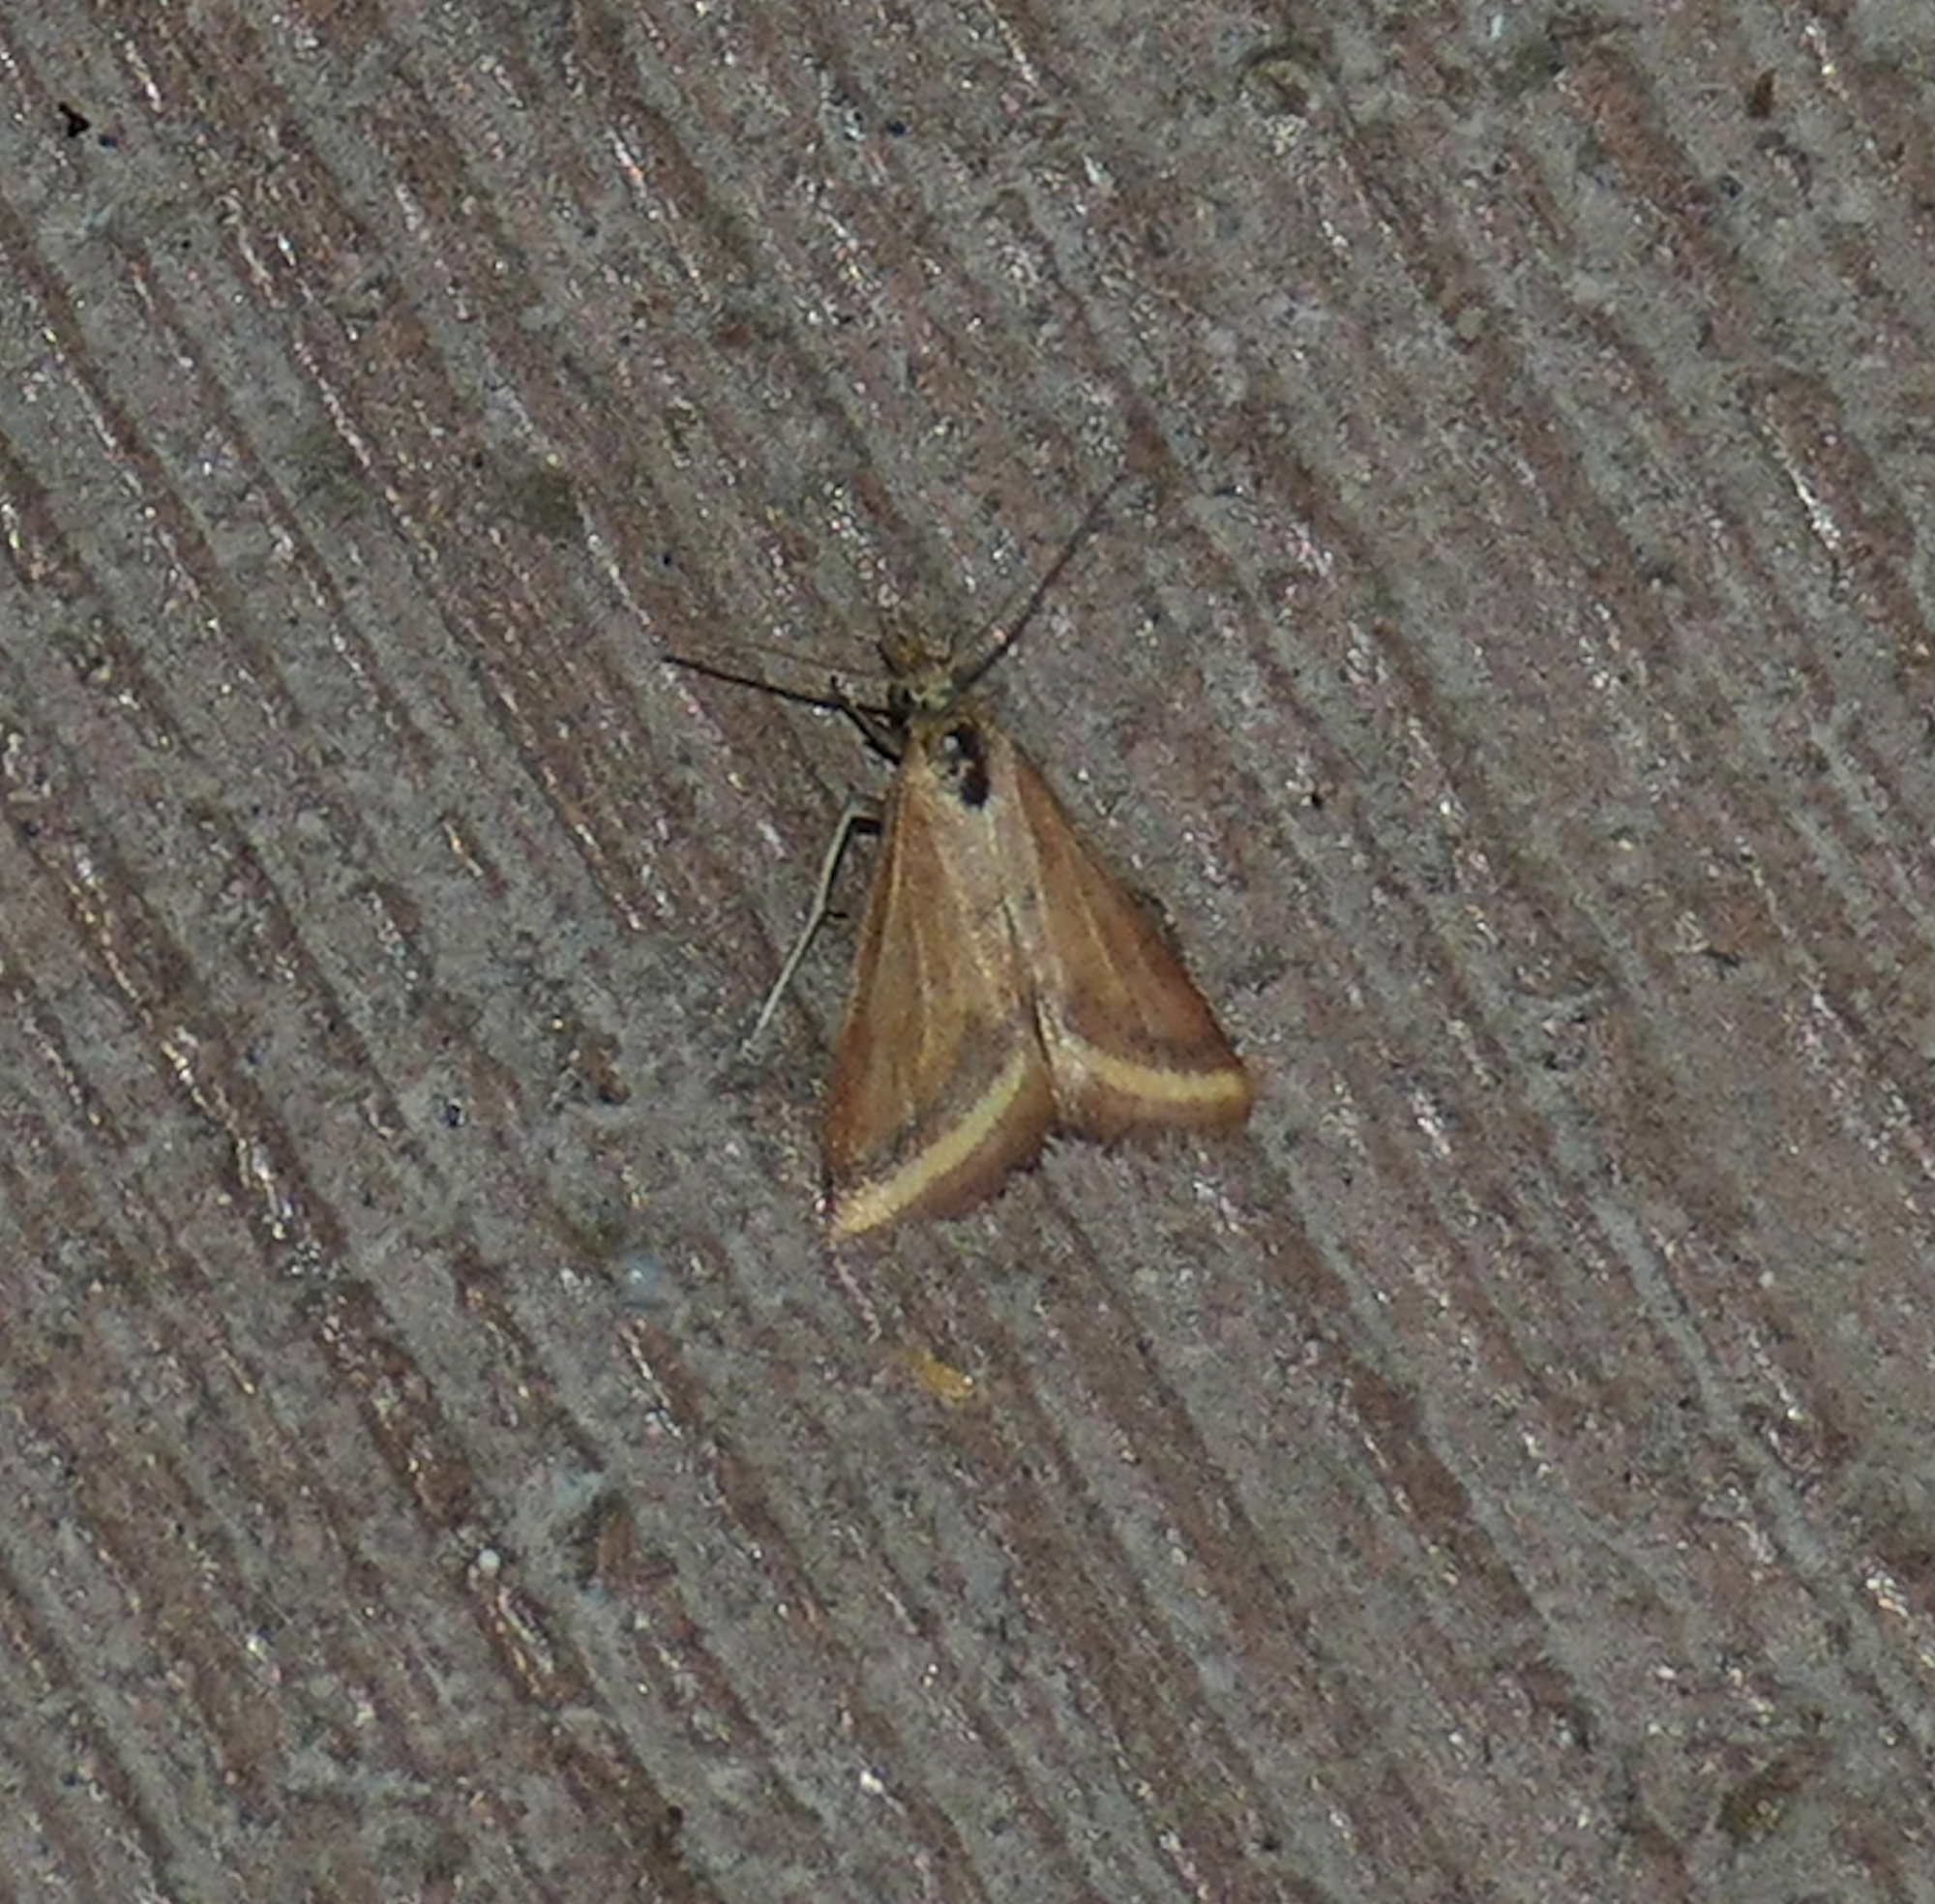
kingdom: Animalia
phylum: Arthropoda
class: Insecta
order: Lepidoptera
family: Crambidae
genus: Microtheoris
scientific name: Microtheoris ophionalis
